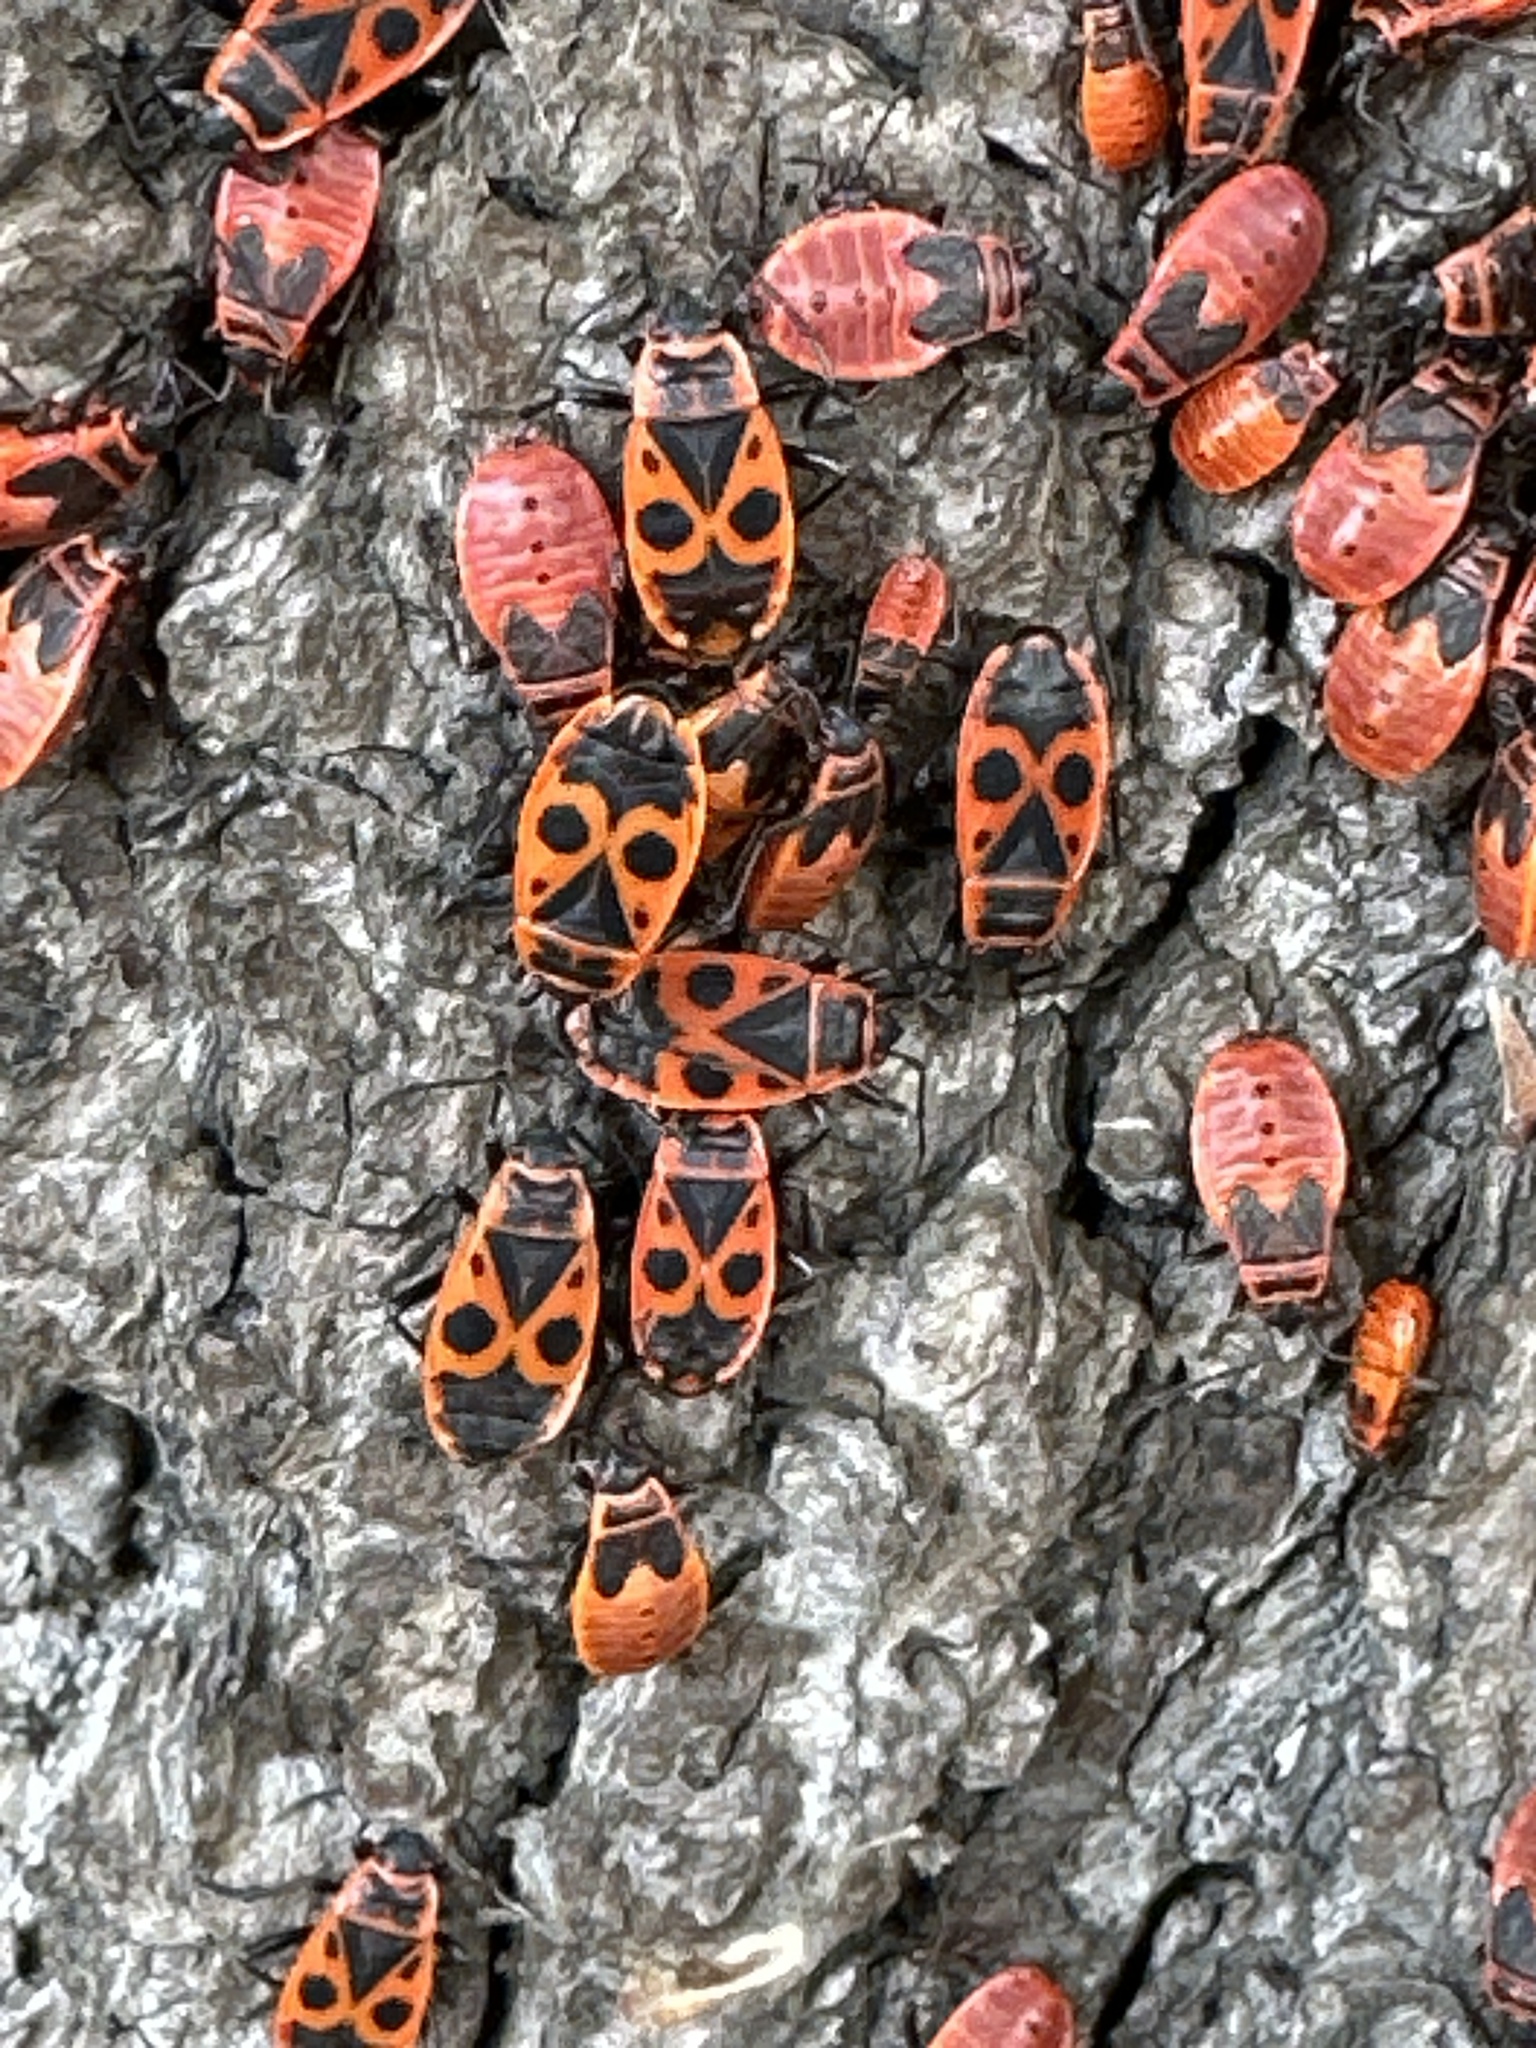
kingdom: Animalia
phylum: Arthropoda
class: Insecta
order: Hemiptera
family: Pyrrhocoridae
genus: Pyrrhocoris
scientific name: Pyrrhocoris apterus
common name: Firebug
